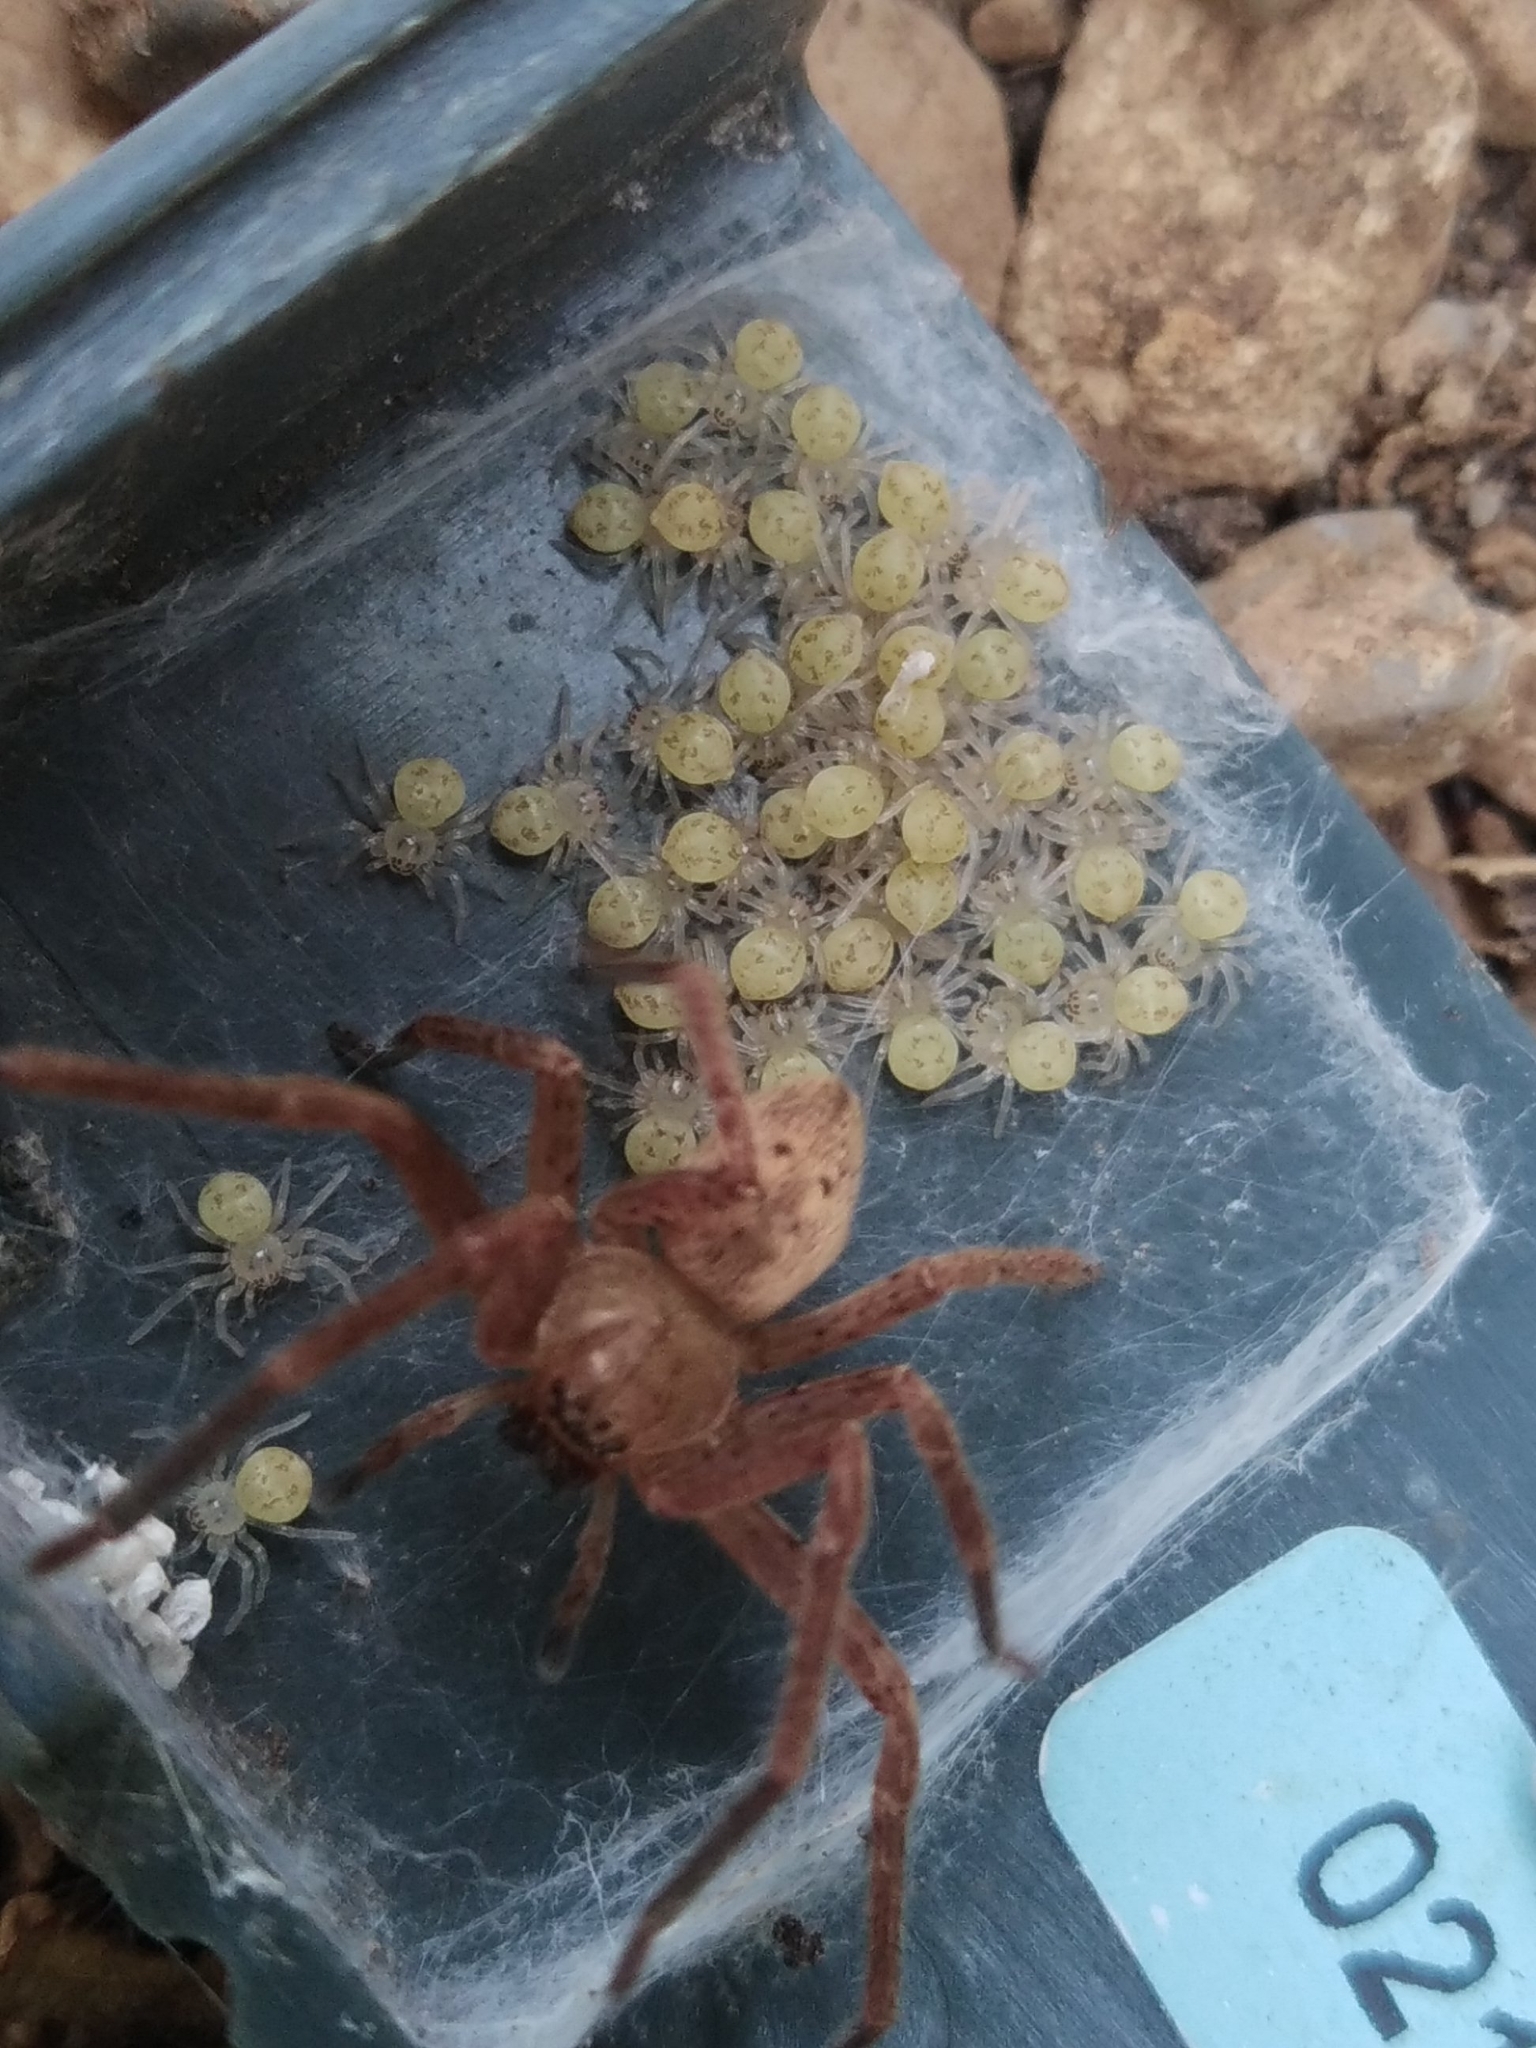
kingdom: Animalia
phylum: Arthropoda
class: Arachnida
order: Araneae
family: Sparassidae
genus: Olios
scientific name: Olios argelasius
